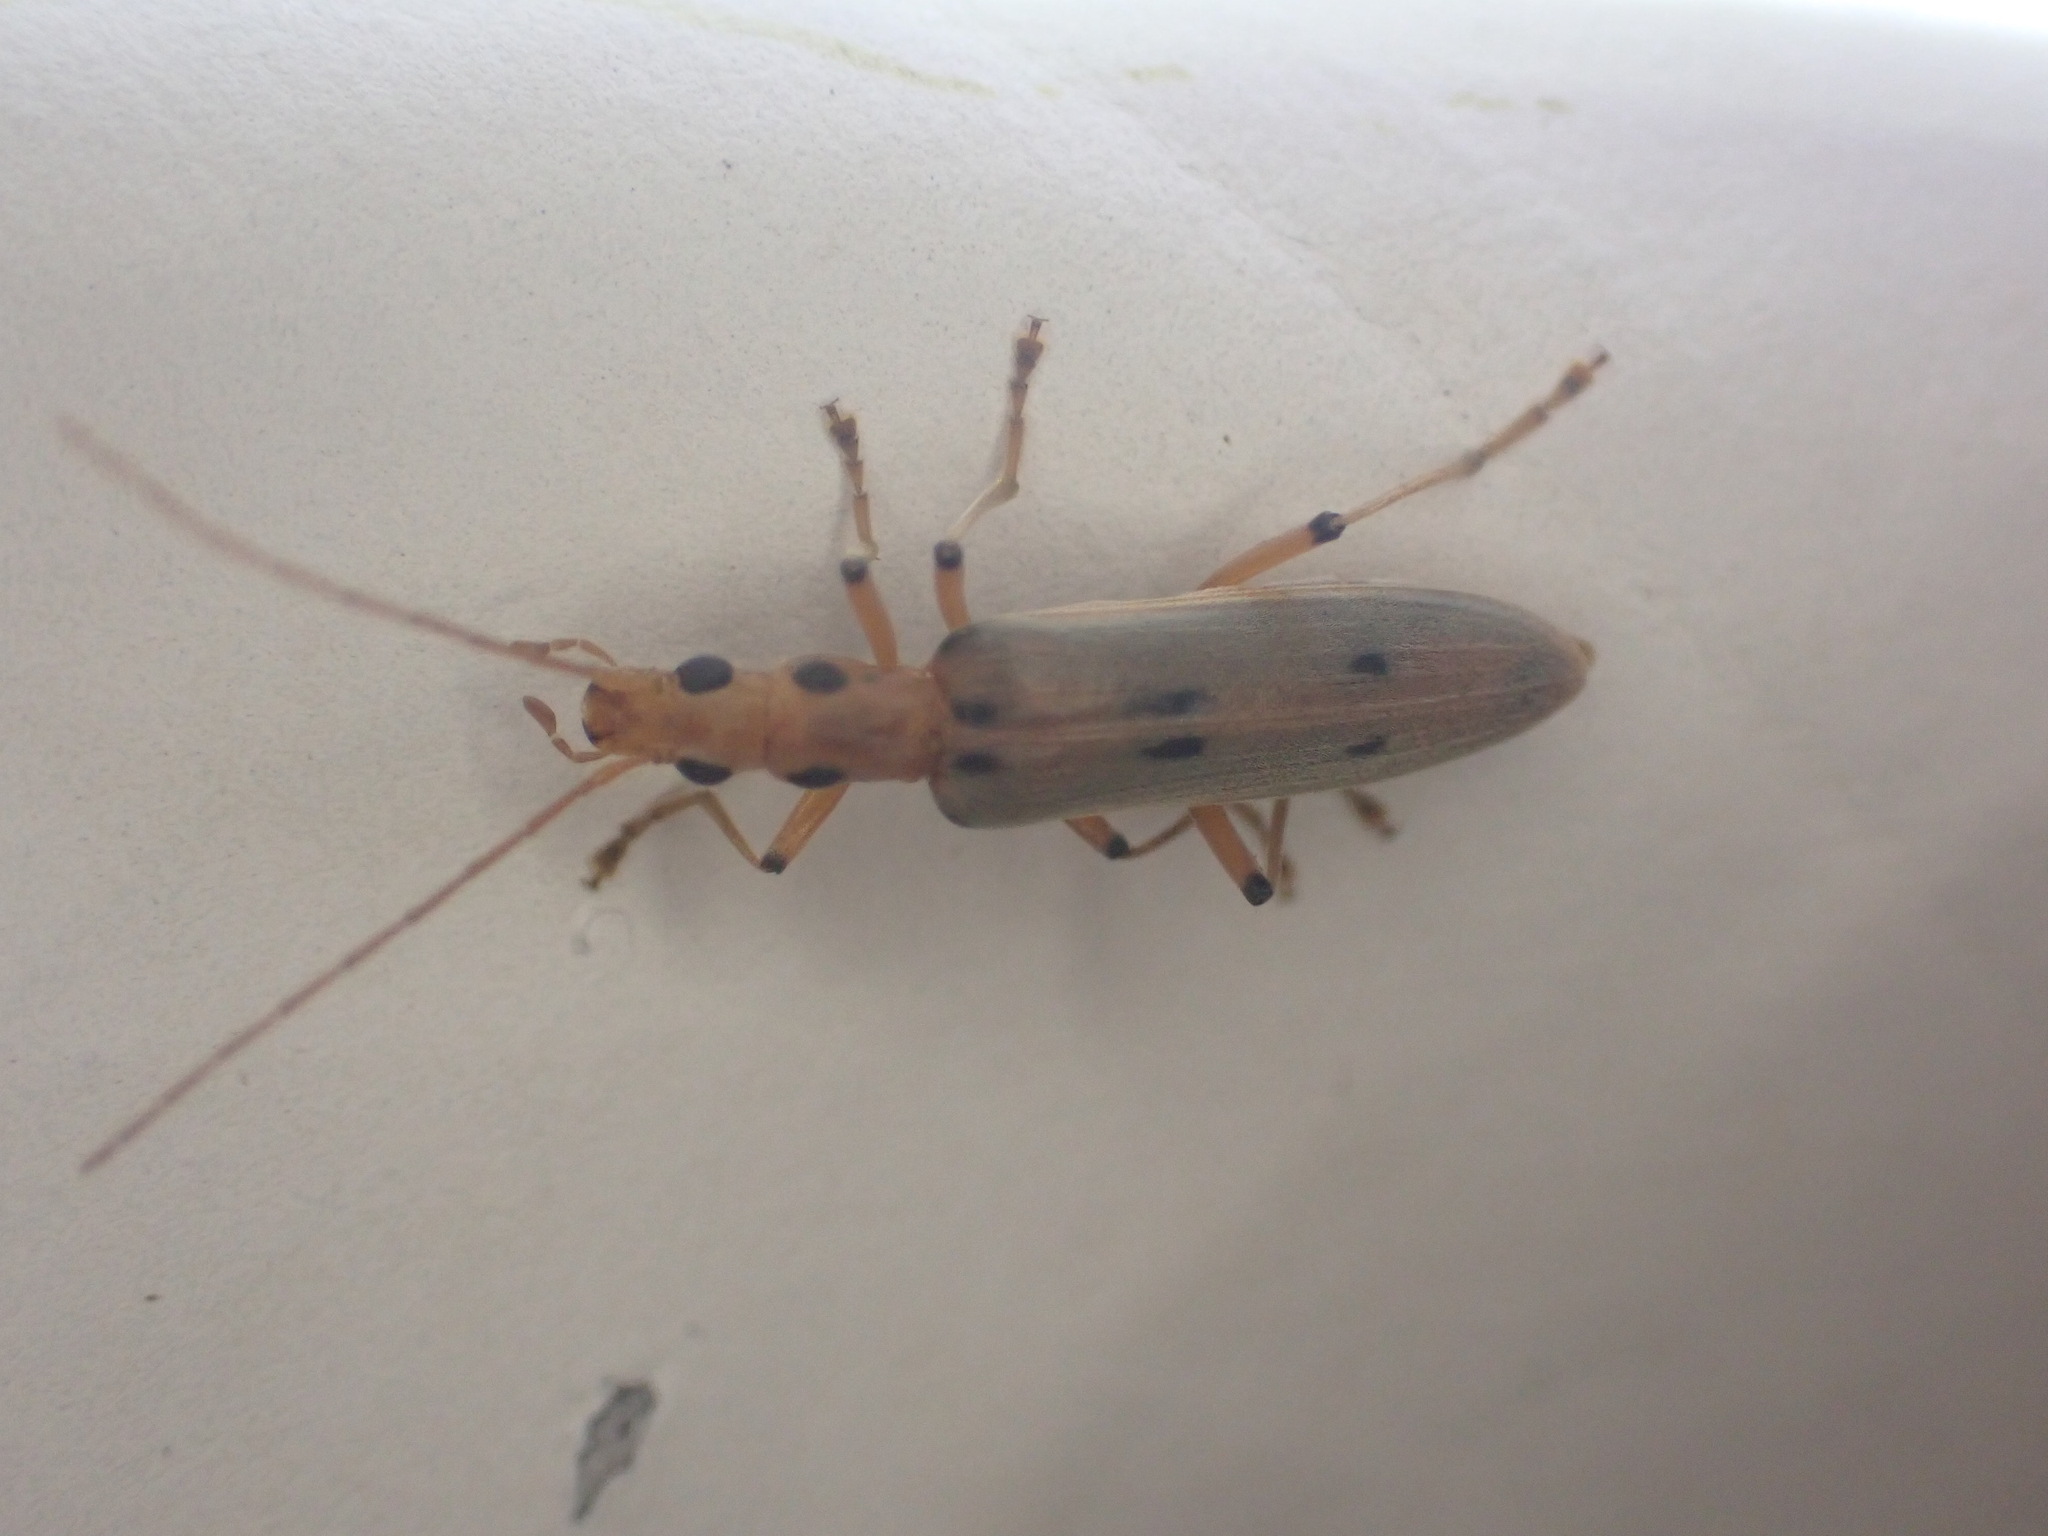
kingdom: Animalia
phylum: Arthropoda
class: Insecta
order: Coleoptera
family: Oedemeridae
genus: Parisopalpus
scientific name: Parisopalpus
